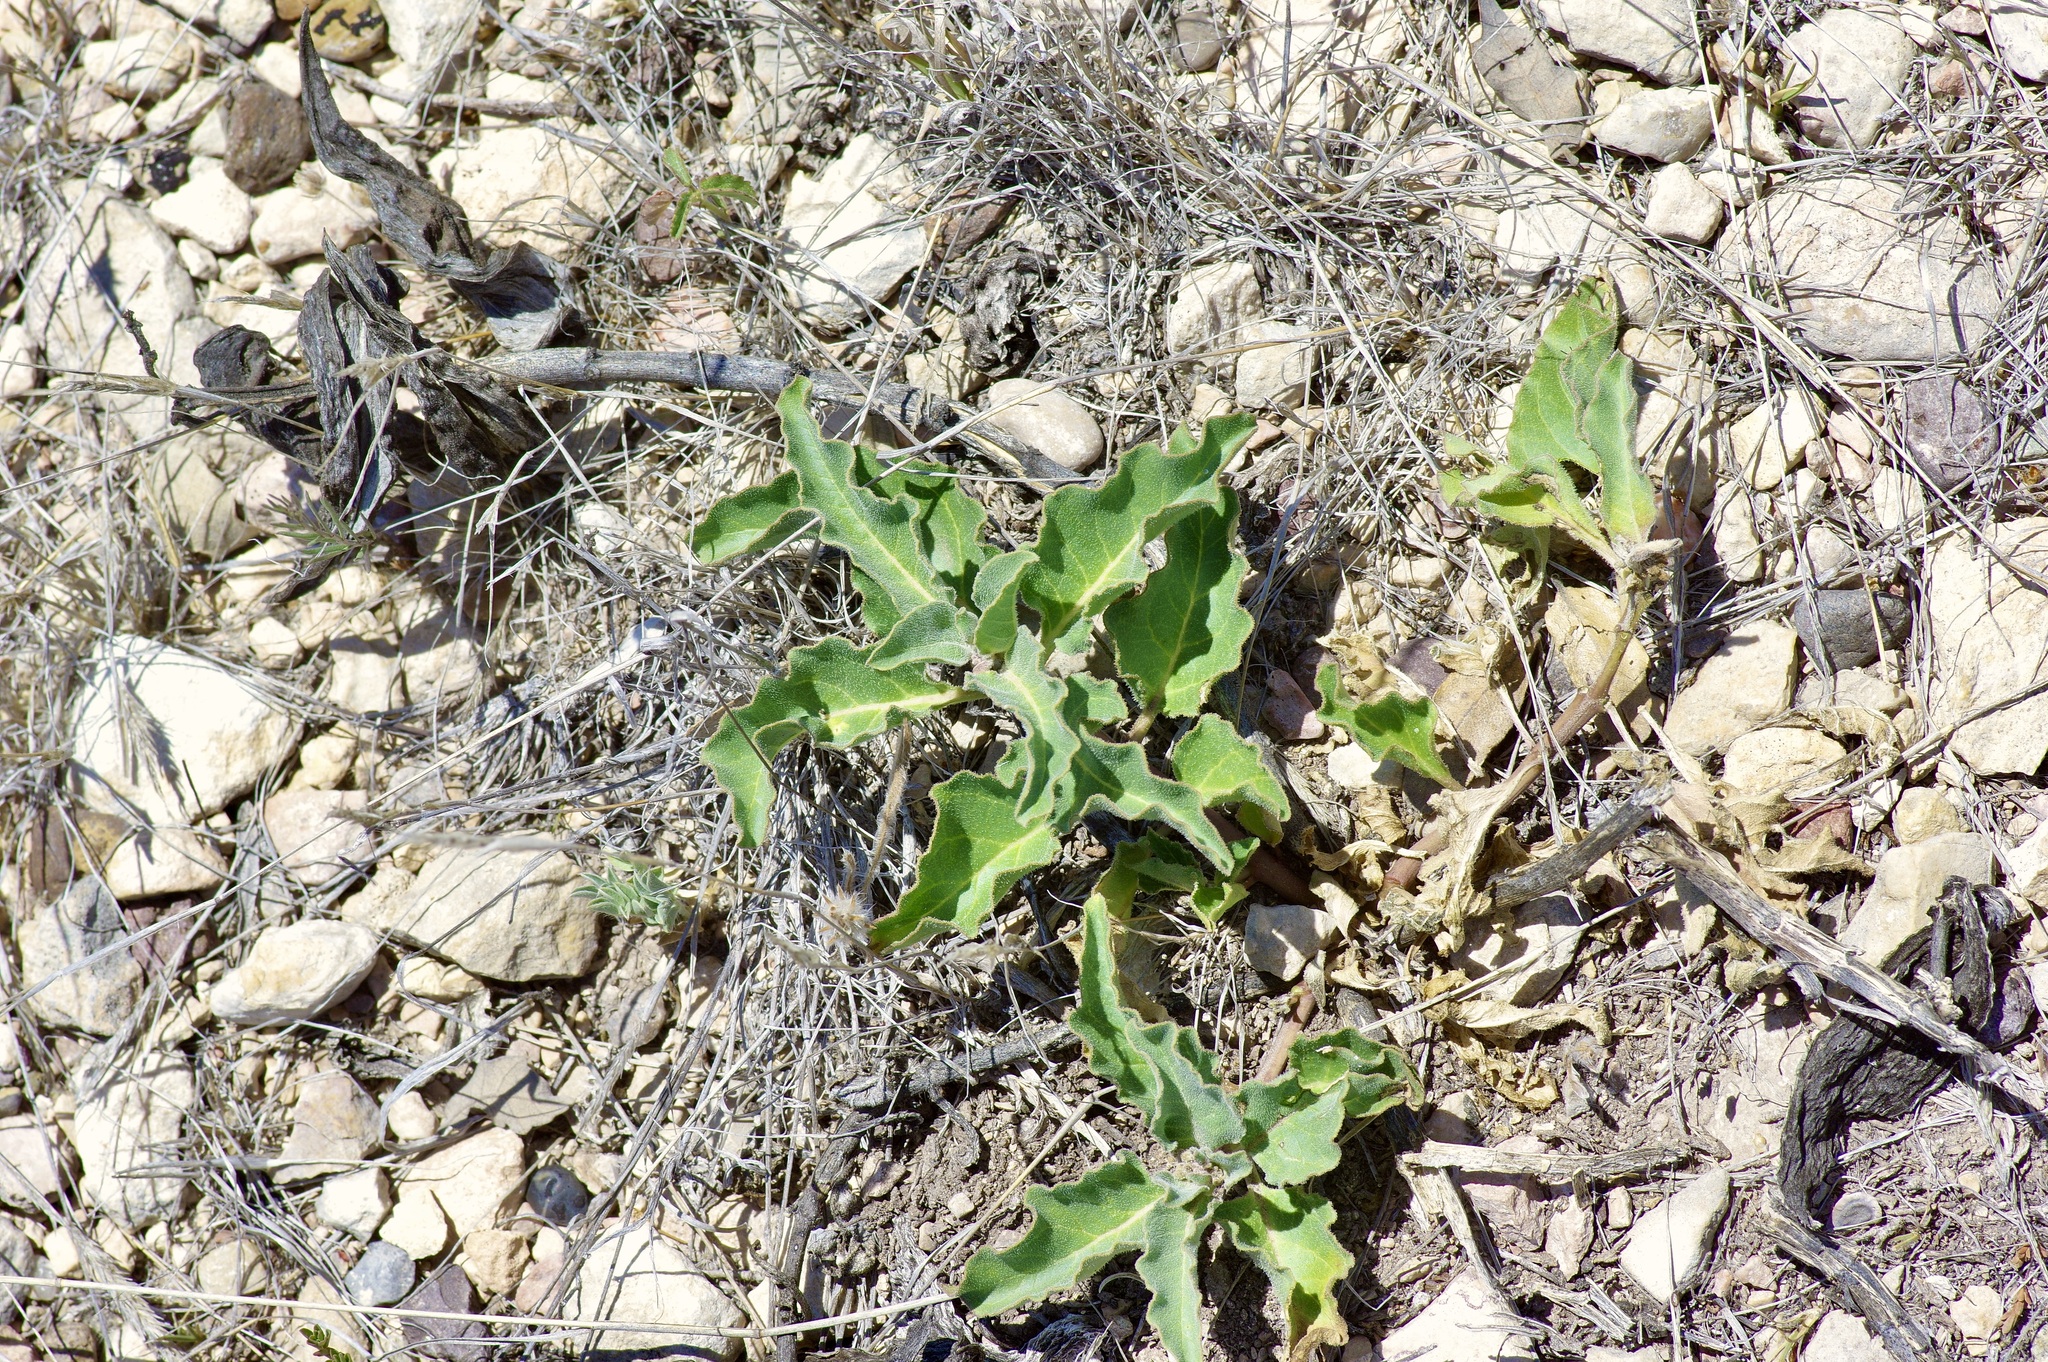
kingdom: Plantae
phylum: Tracheophyta
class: Magnoliopsida
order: Gentianales
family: Apocynaceae
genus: Asclepias
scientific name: Asclepias oenotheroides
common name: Zizotes milkweed
